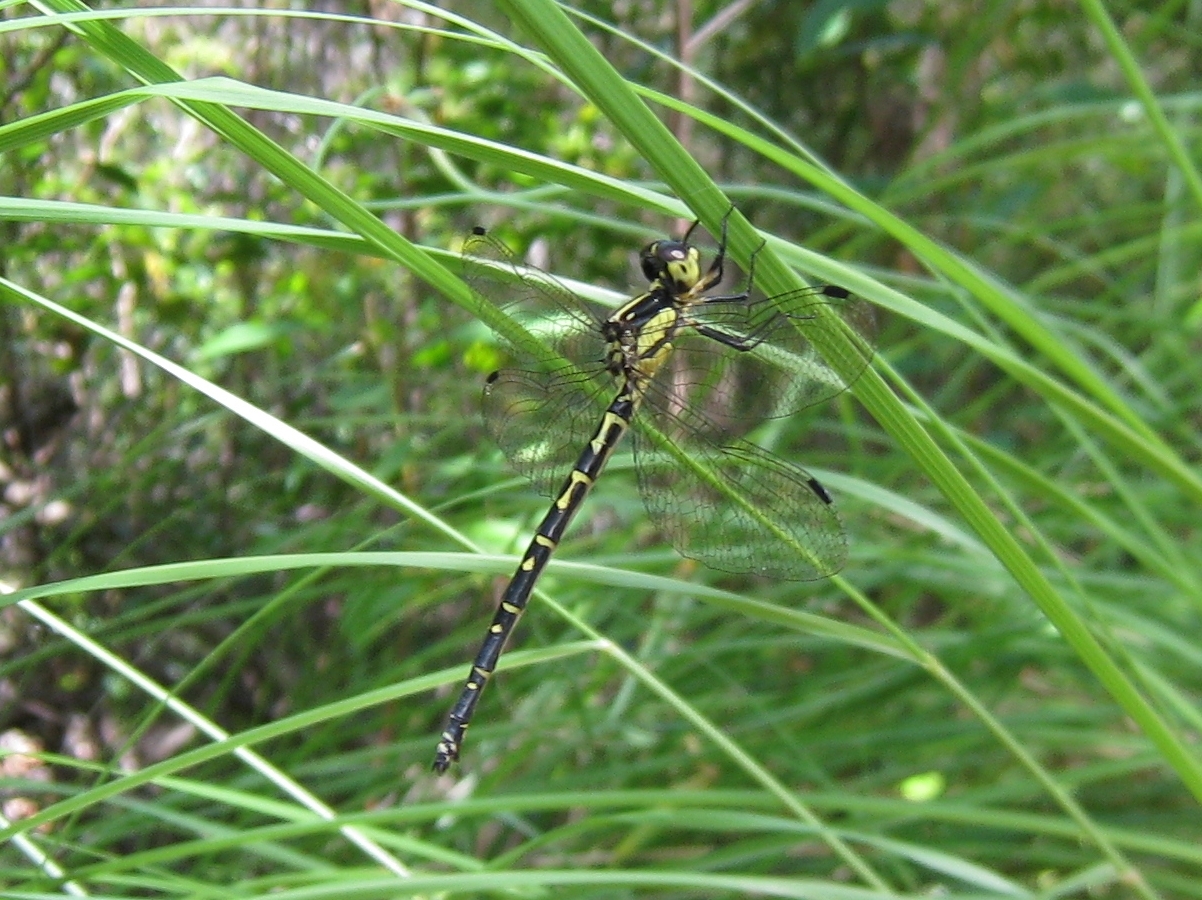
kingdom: Animalia
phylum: Arthropoda
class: Insecta
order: Odonata
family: Synthemistidae
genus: Choristhemis
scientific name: Choristhemis flavoterminata
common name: Yellow-tipped tigertail
